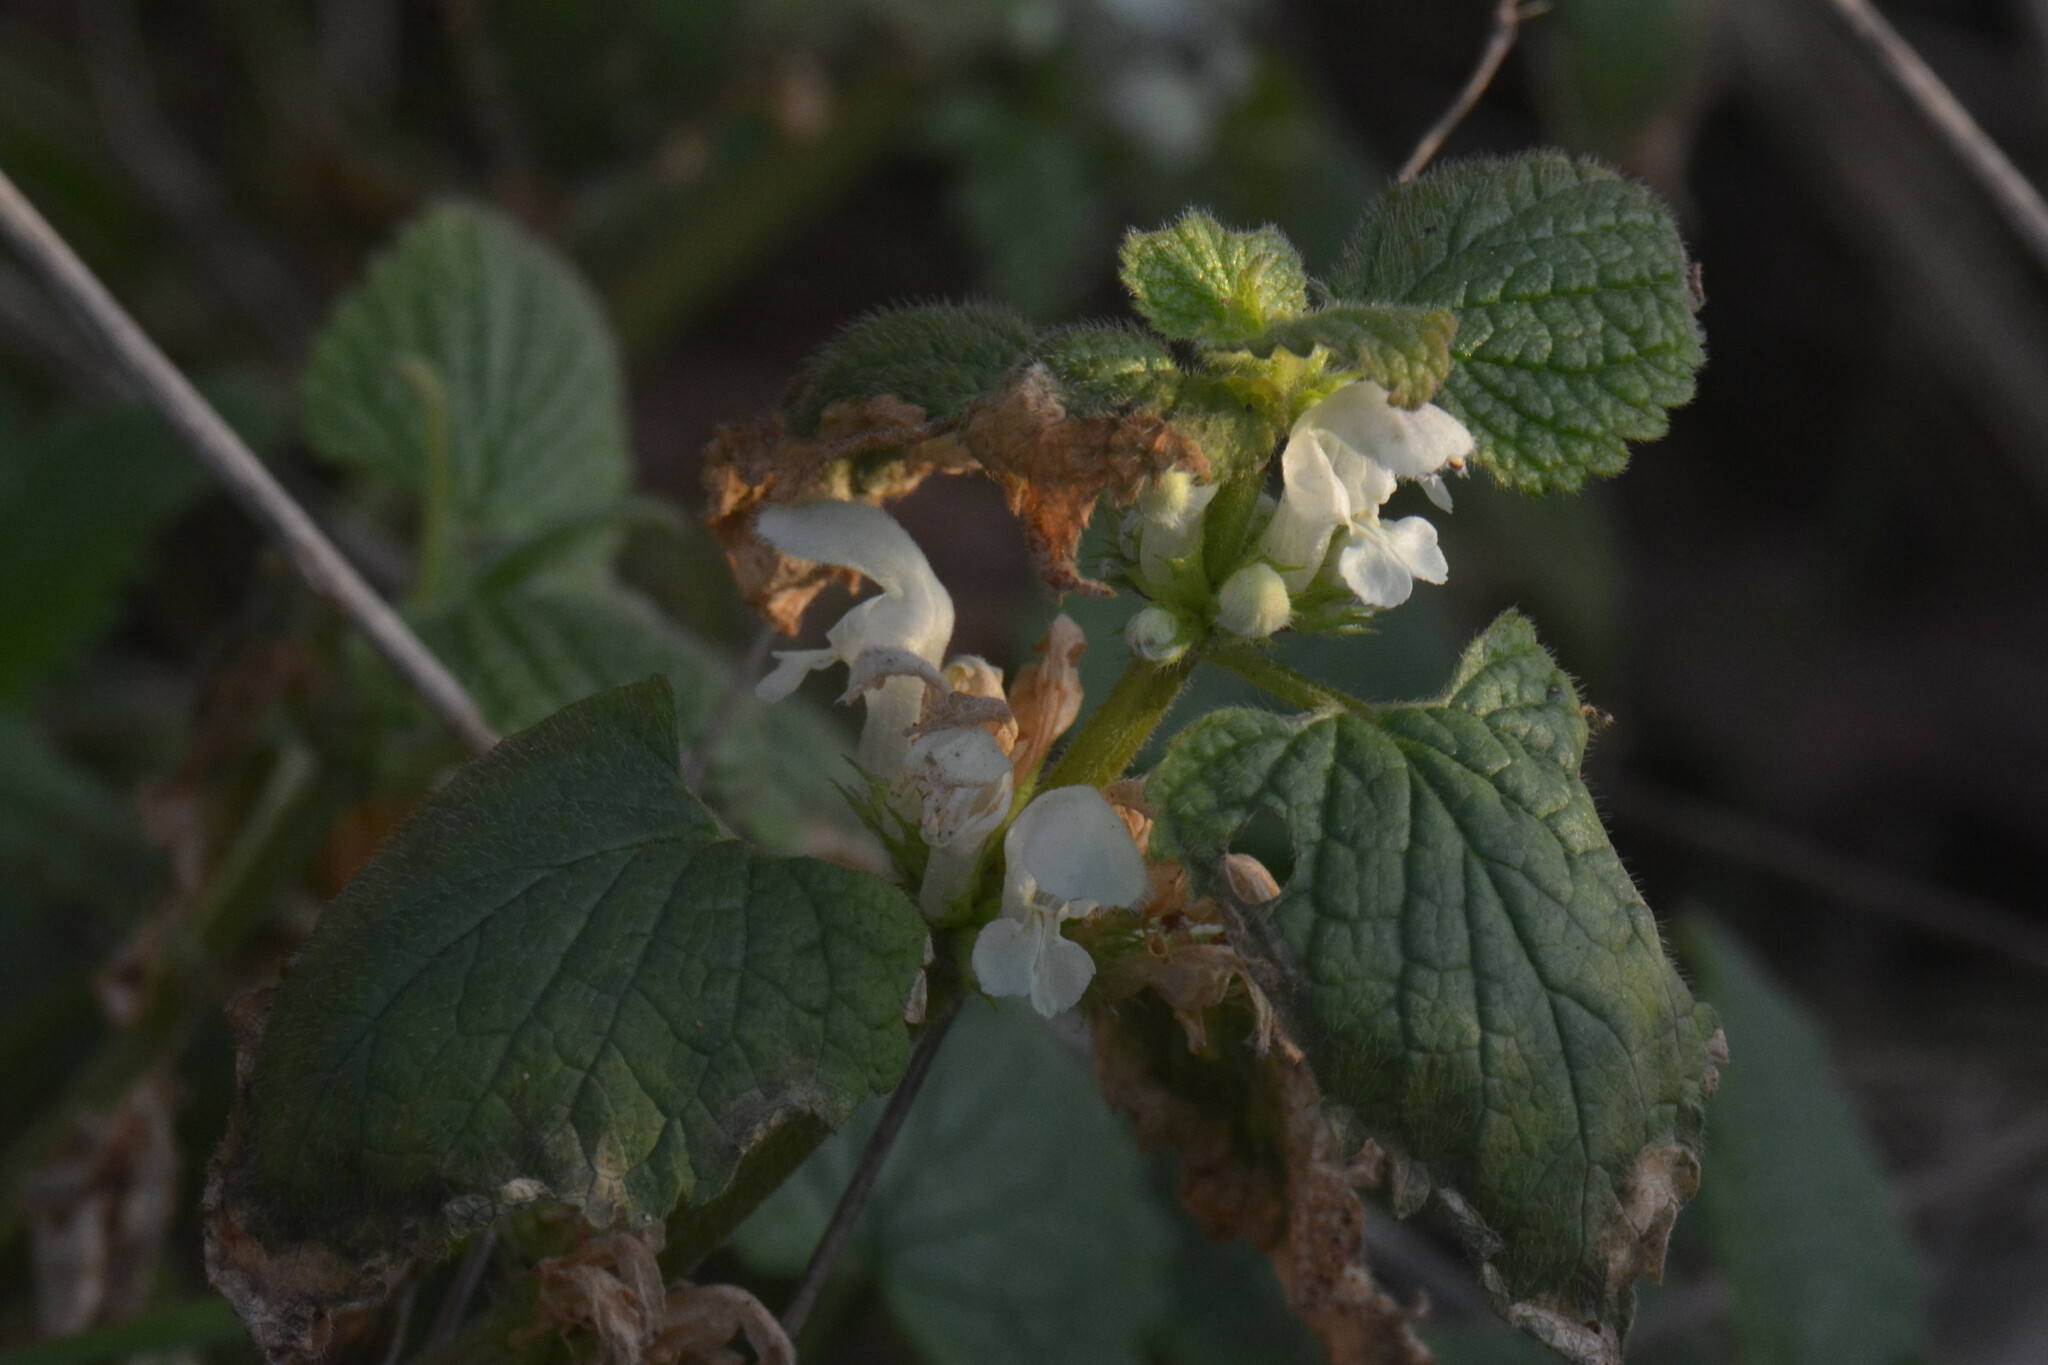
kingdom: Plantae
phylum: Tracheophyta
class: Magnoliopsida
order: Lamiales
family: Lamiaceae
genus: Lamium
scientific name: Lamium album
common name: White dead-nettle
